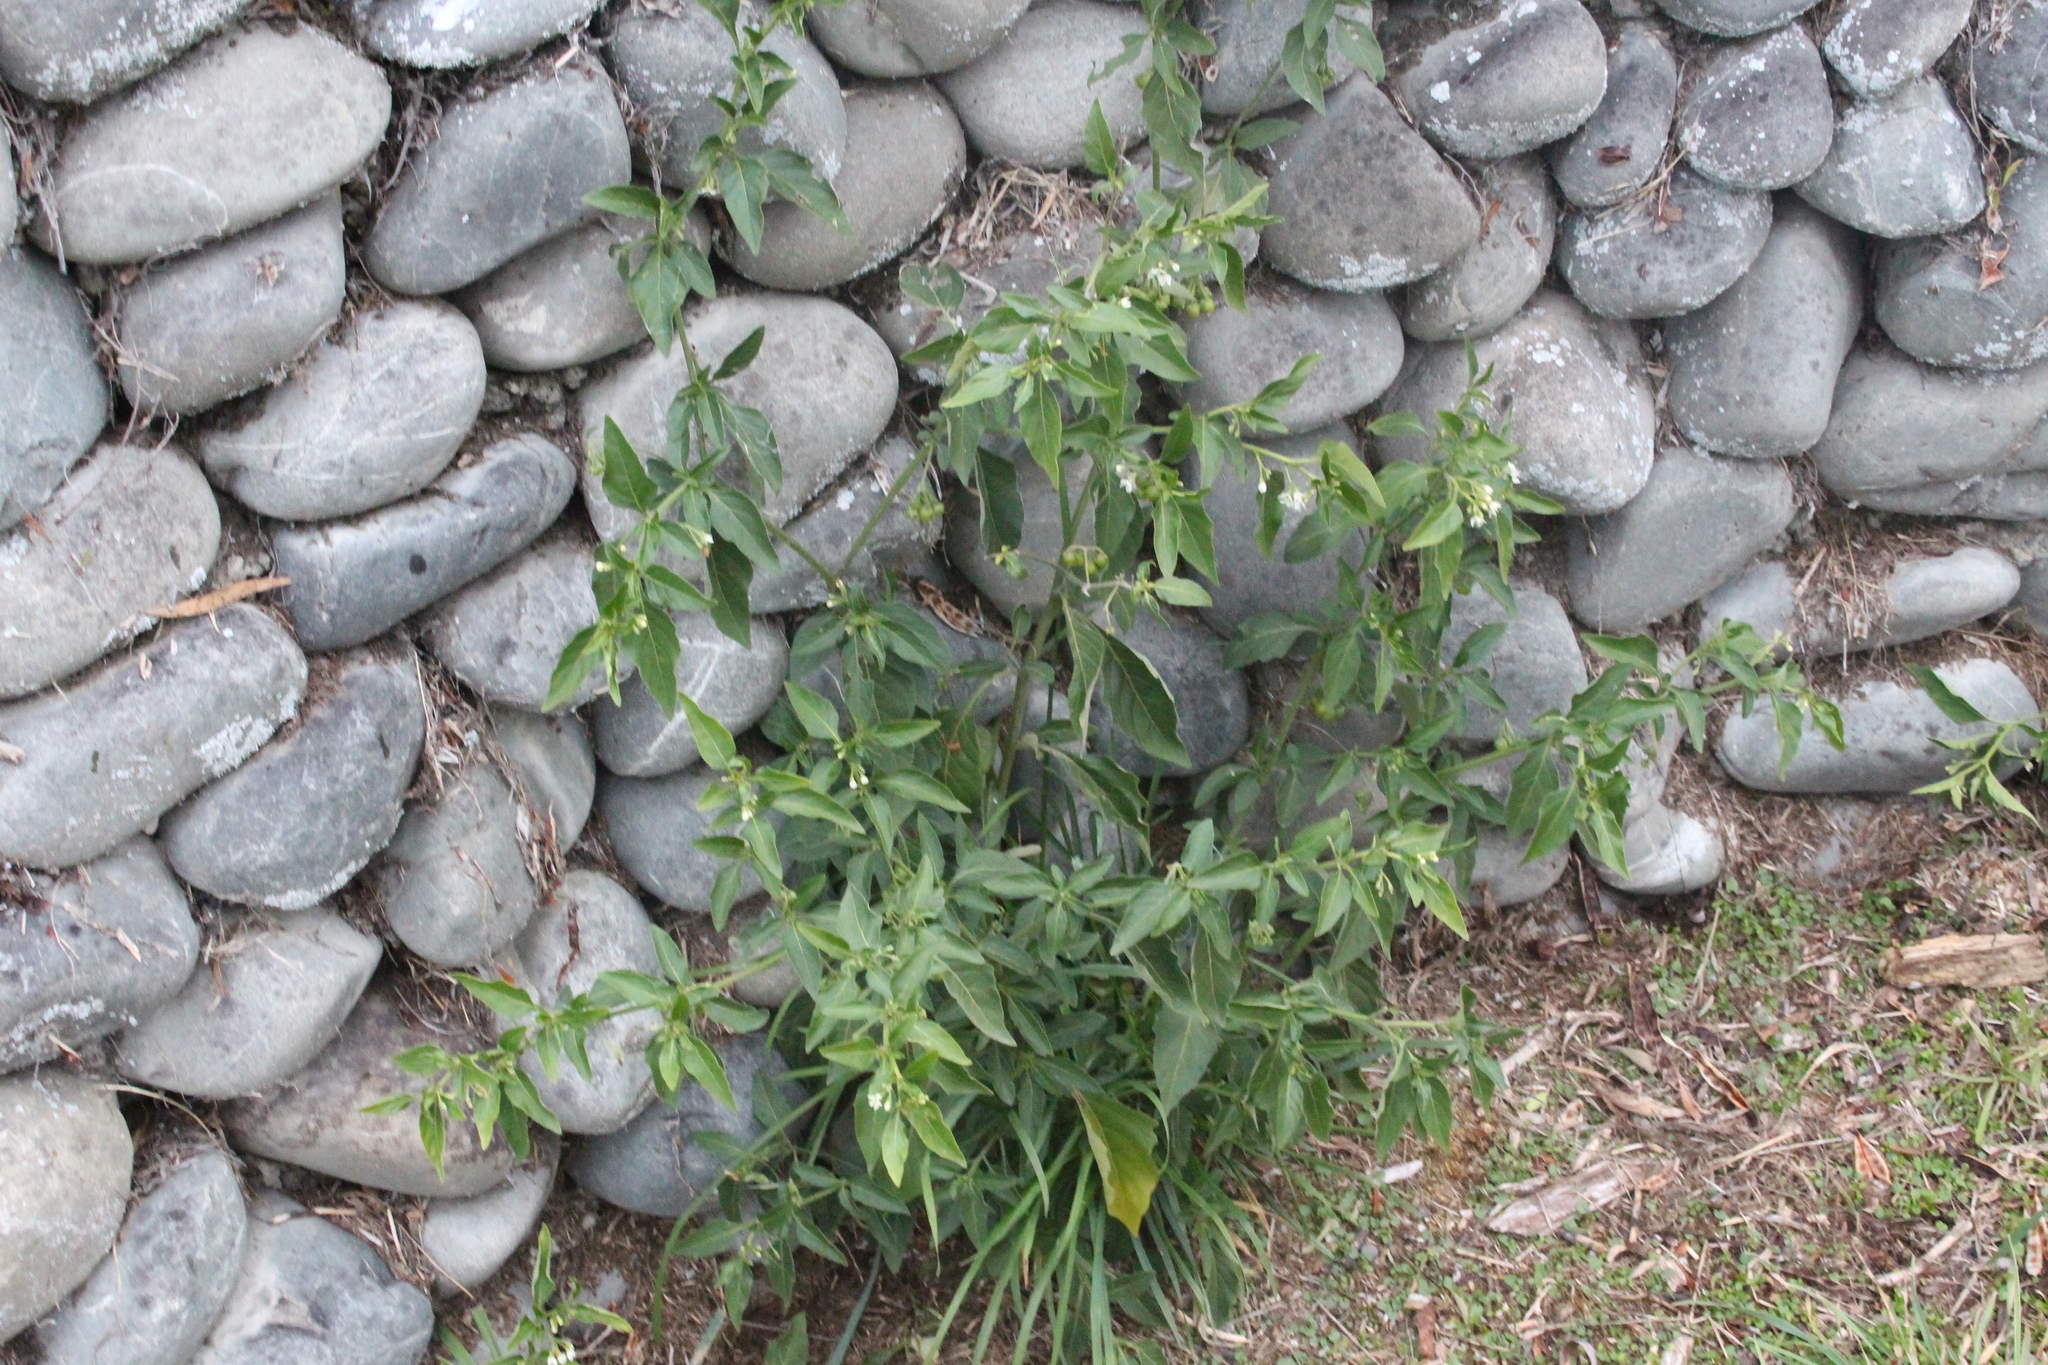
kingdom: Plantae
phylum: Tracheophyta
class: Magnoliopsida
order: Solanales
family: Solanaceae
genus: Solanum
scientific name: Solanum chenopodioides
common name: Tall nightshade
